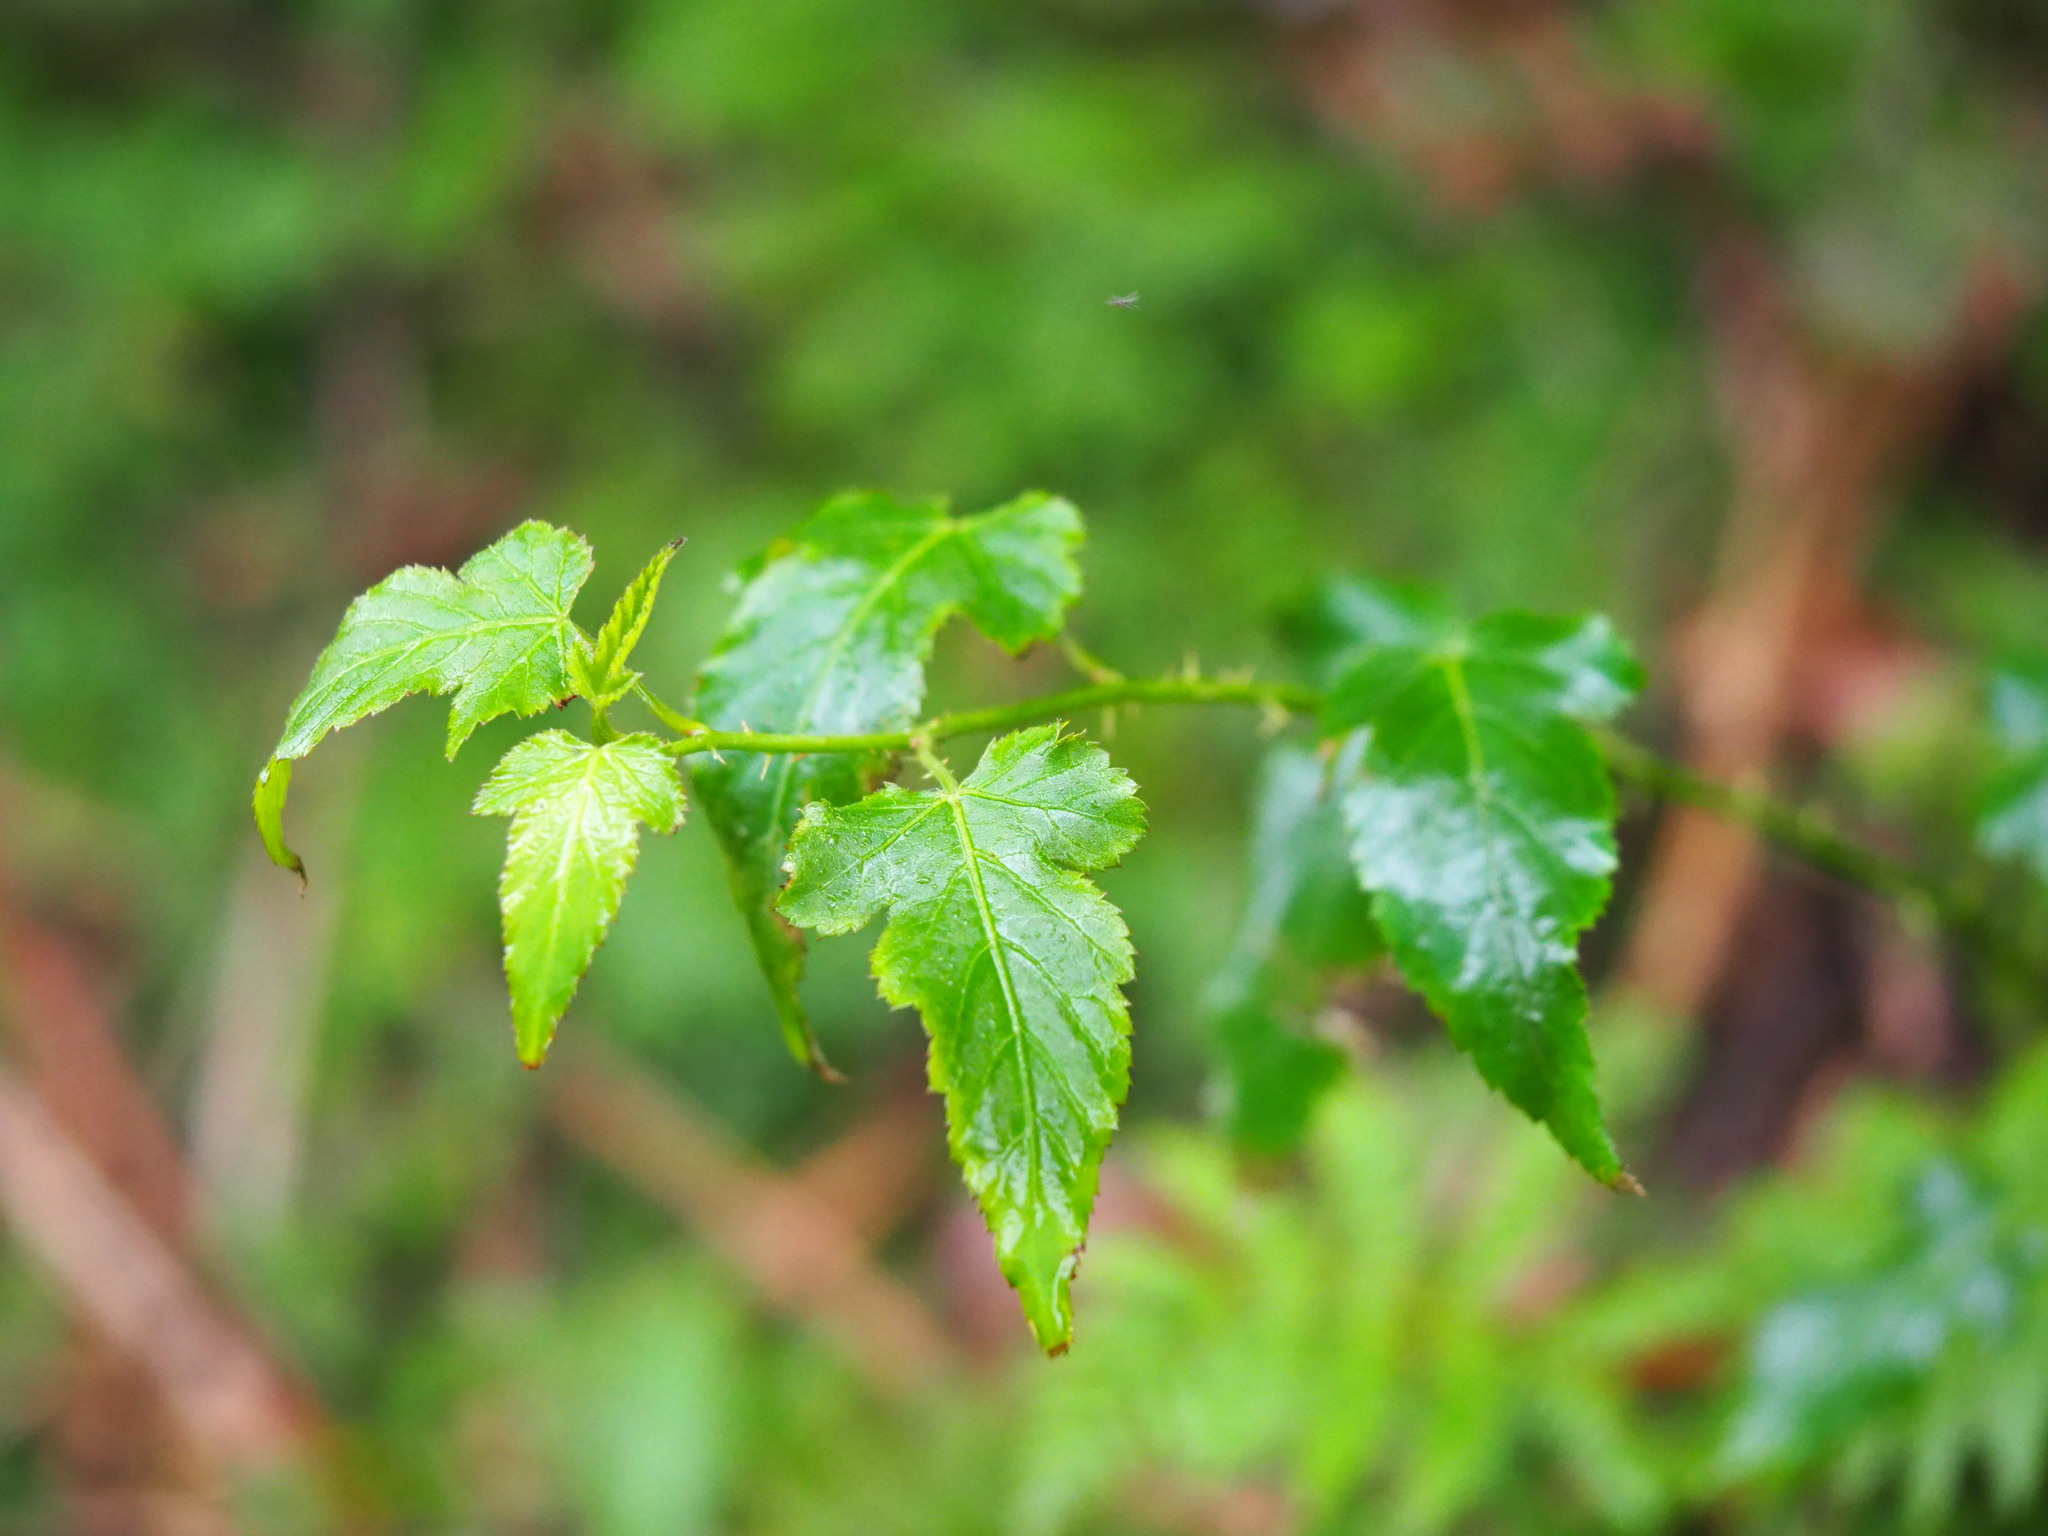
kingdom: Plantae
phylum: Tracheophyta
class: Magnoliopsida
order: Rosales
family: Rosaceae
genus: Rubus
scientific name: Rubus corchorifolius
